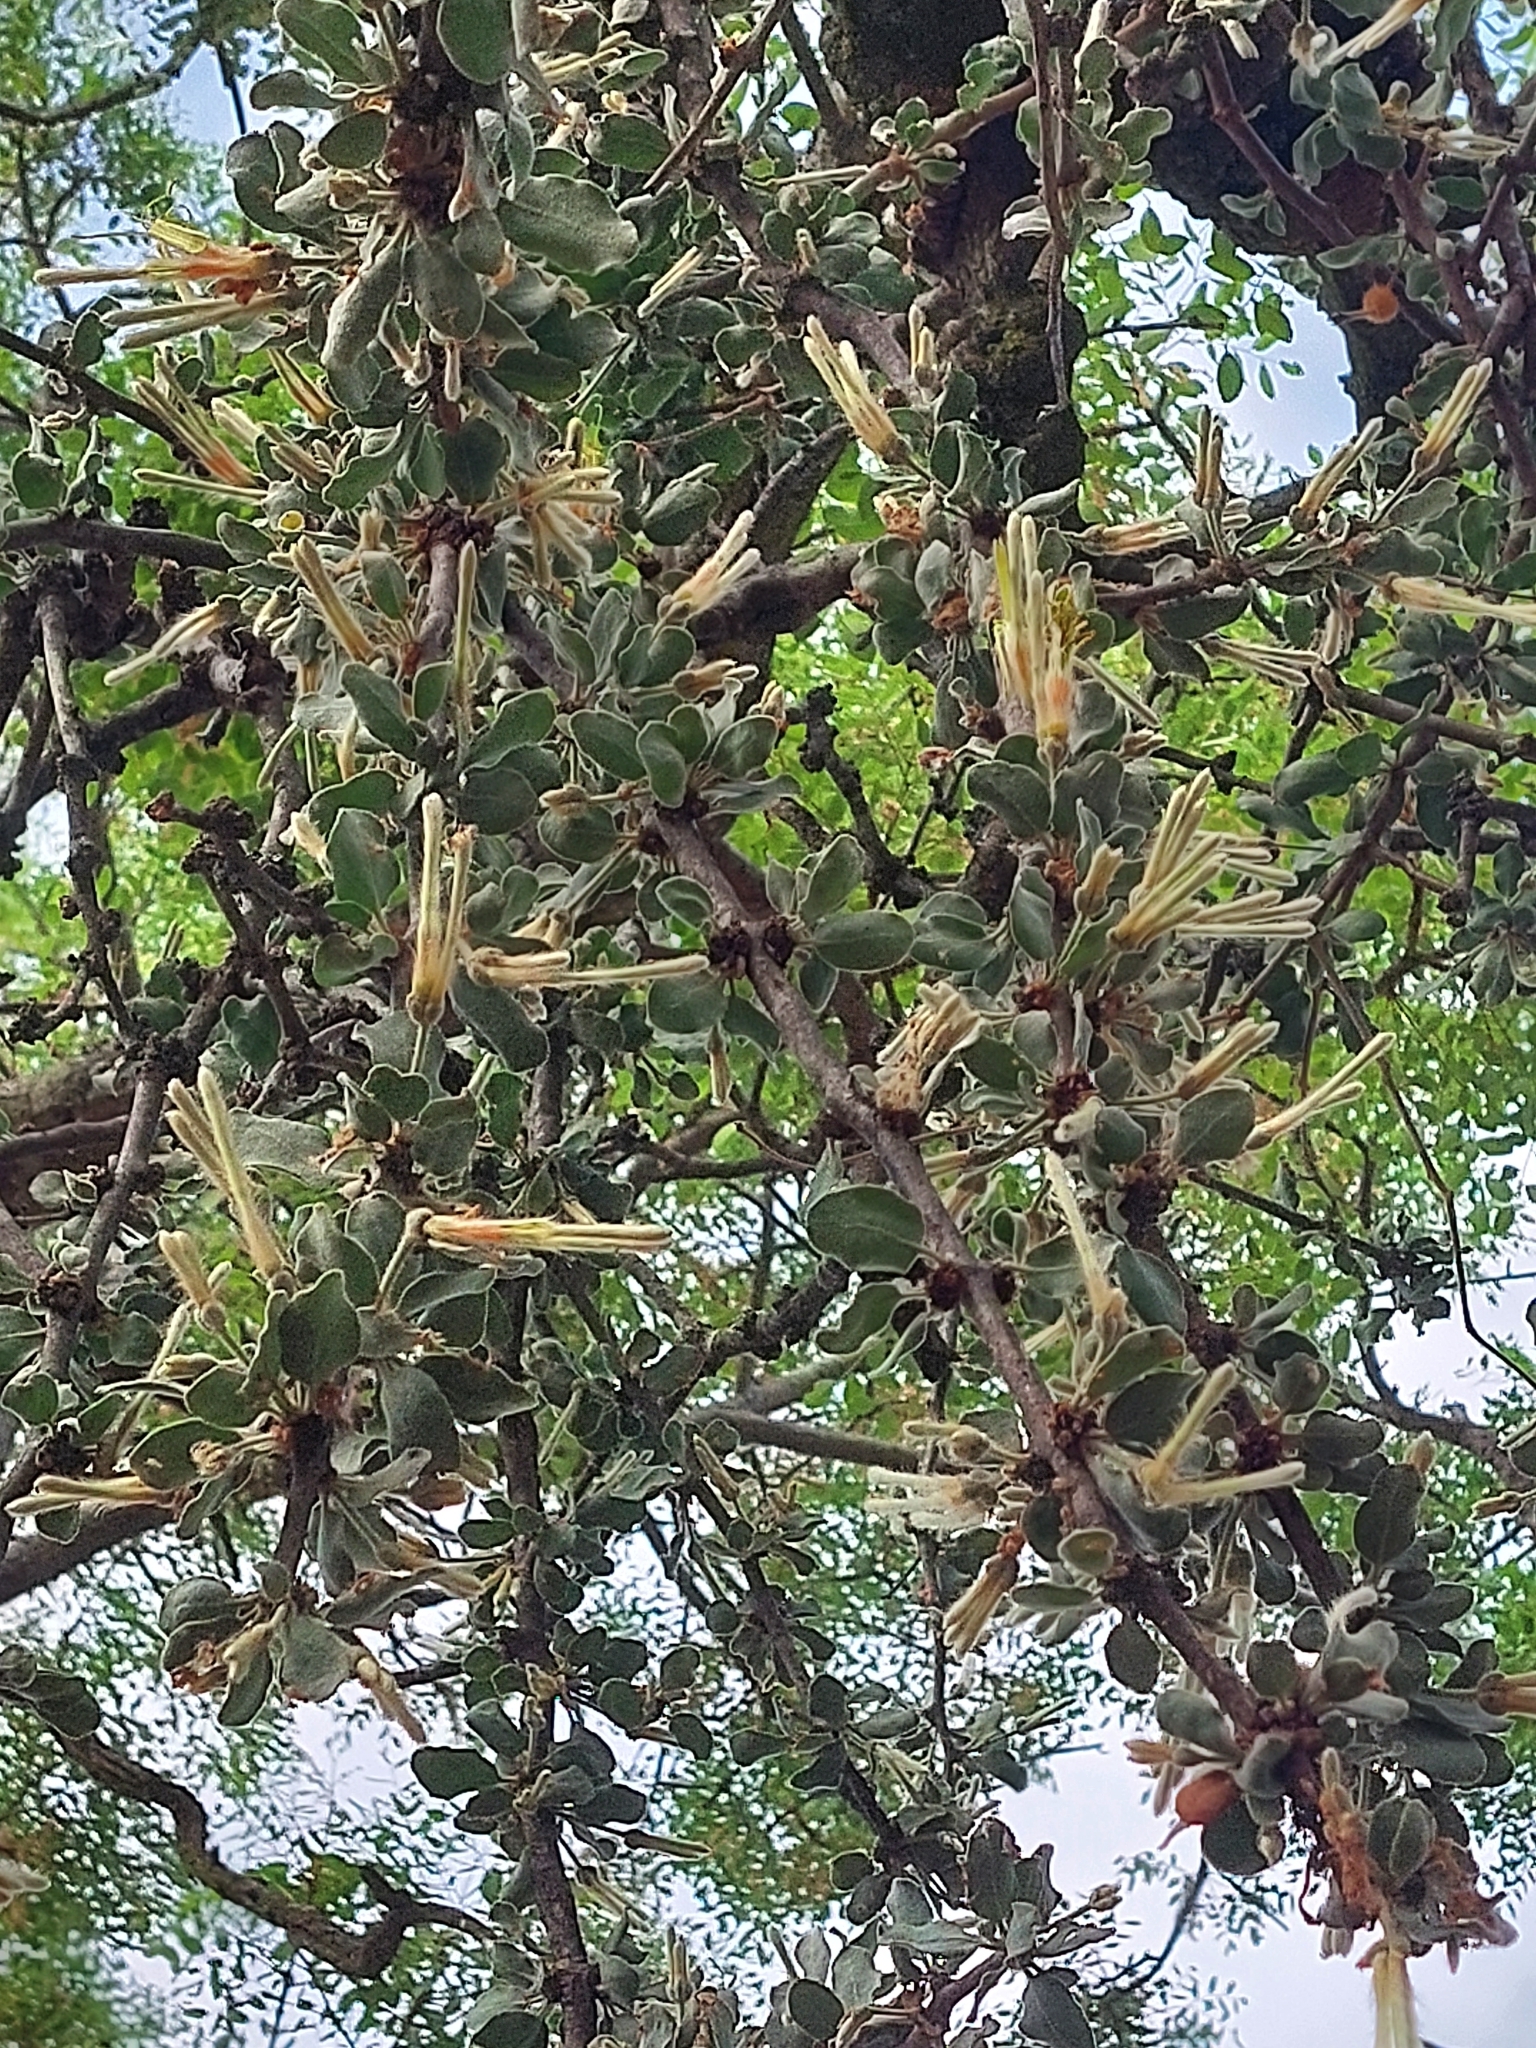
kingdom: Plantae
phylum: Tracheophyta
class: Magnoliopsida
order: Santalales
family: Loranthaceae
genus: Erianthemum
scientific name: Erianthemum ngamicum
